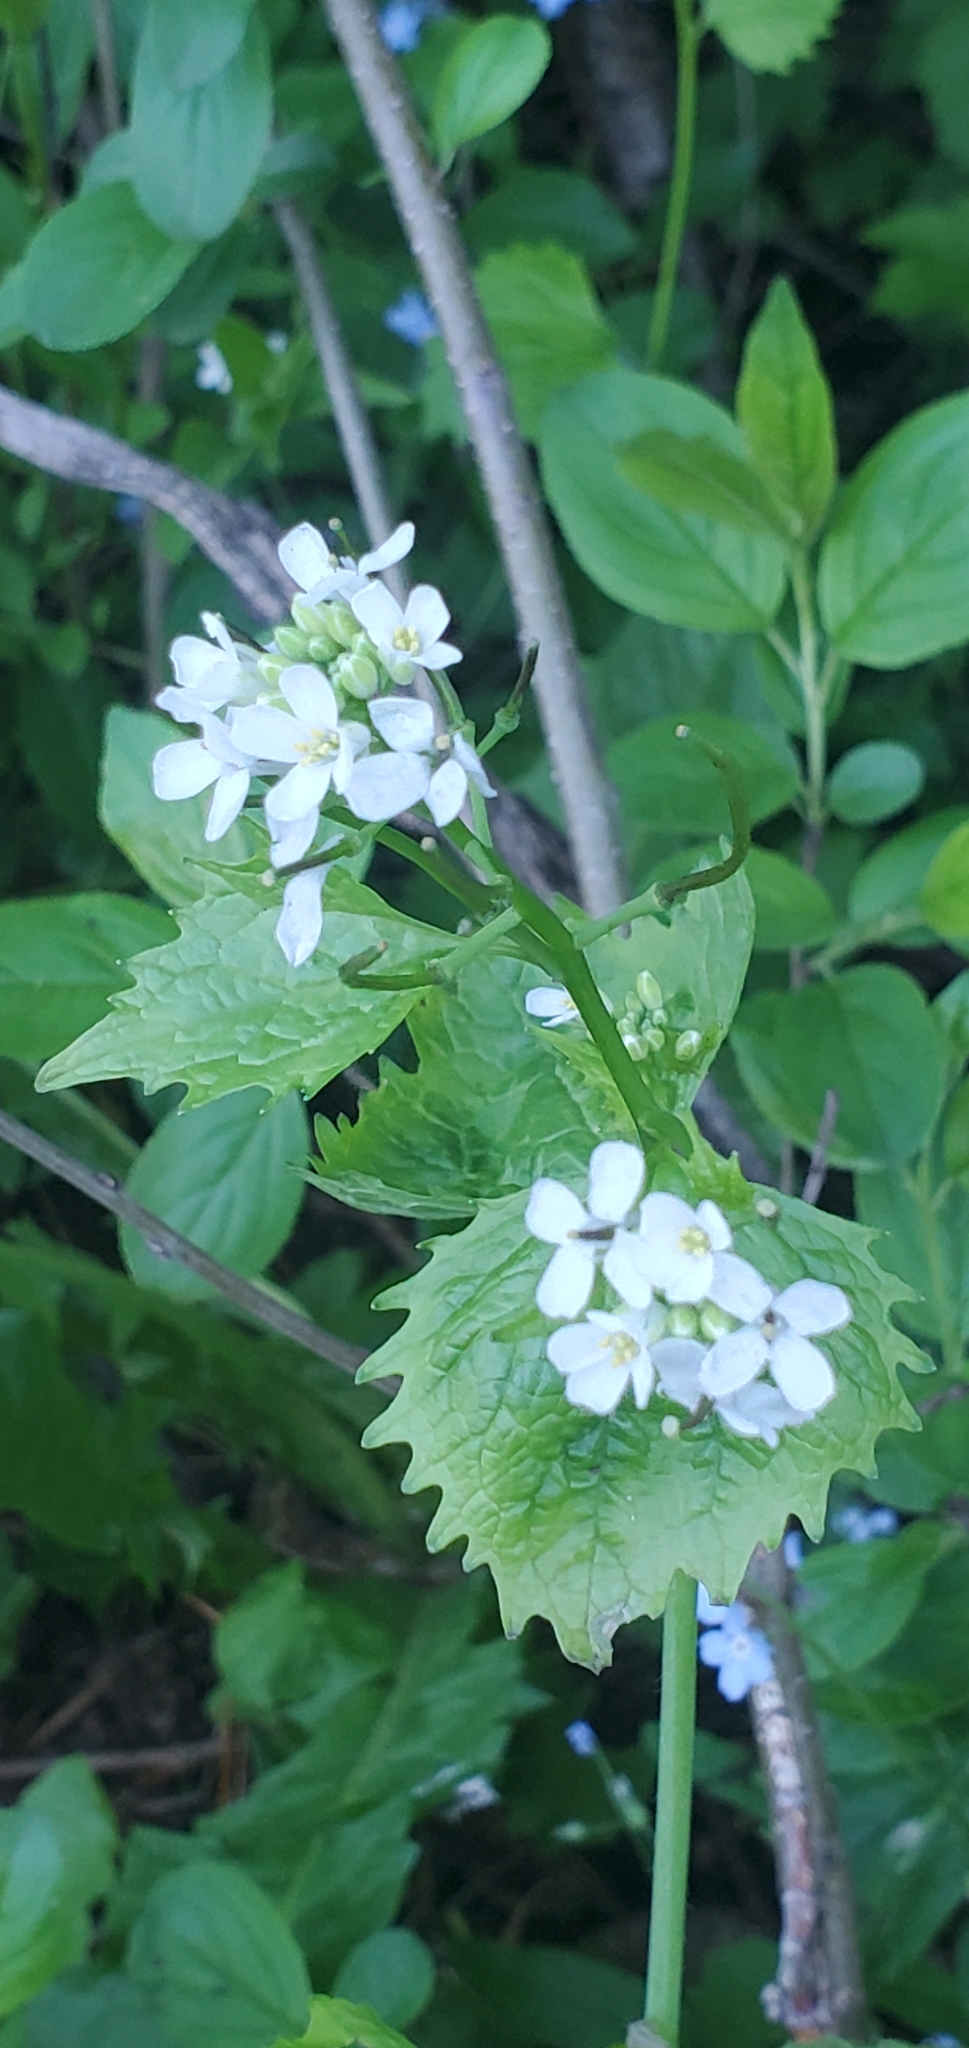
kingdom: Plantae
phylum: Tracheophyta
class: Magnoliopsida
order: Brassicales
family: Brassicaceae
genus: Alliaria
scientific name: Alliaria petiolata
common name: Garlic mustard
